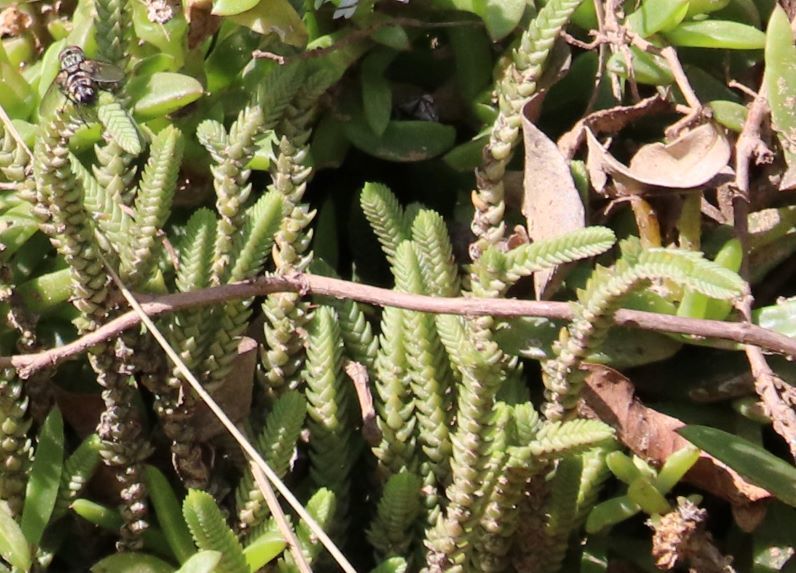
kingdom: Plantae
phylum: Tracheophyta
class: Magnoliopsida
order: Saxifragales
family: Crassulaceae
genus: Crassula
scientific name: Crassula muscosa
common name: Toy-cypress
